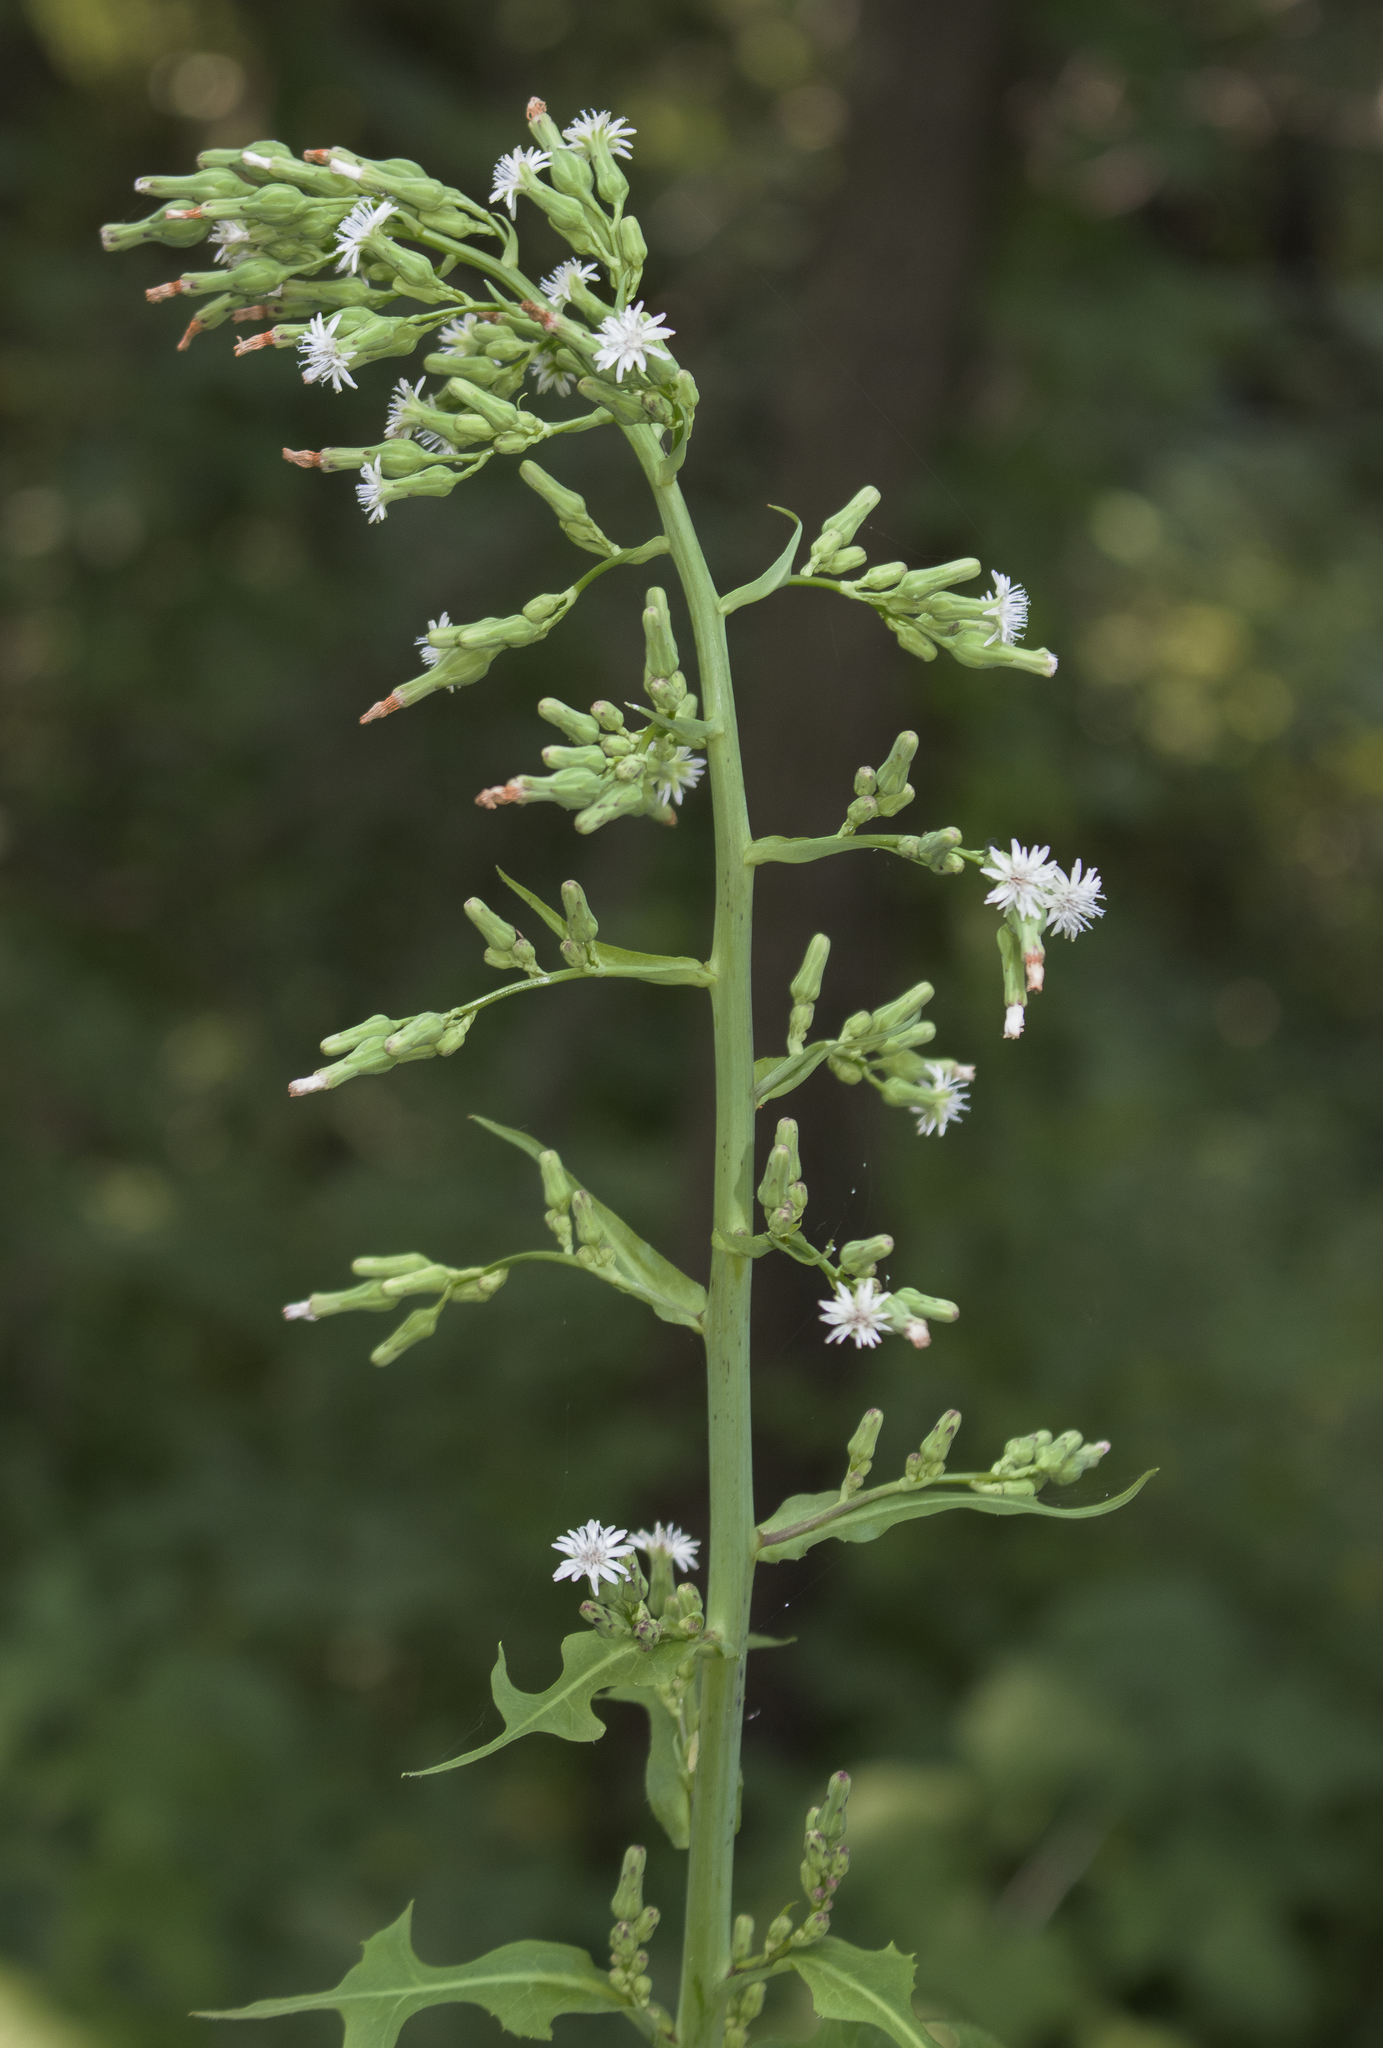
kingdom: Plantae
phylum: Tracheophyta
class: Magnoliopsida
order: Asterales
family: Asteraceae
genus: Lactuca
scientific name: Lactuca biennis
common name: Blue wood lettuce
